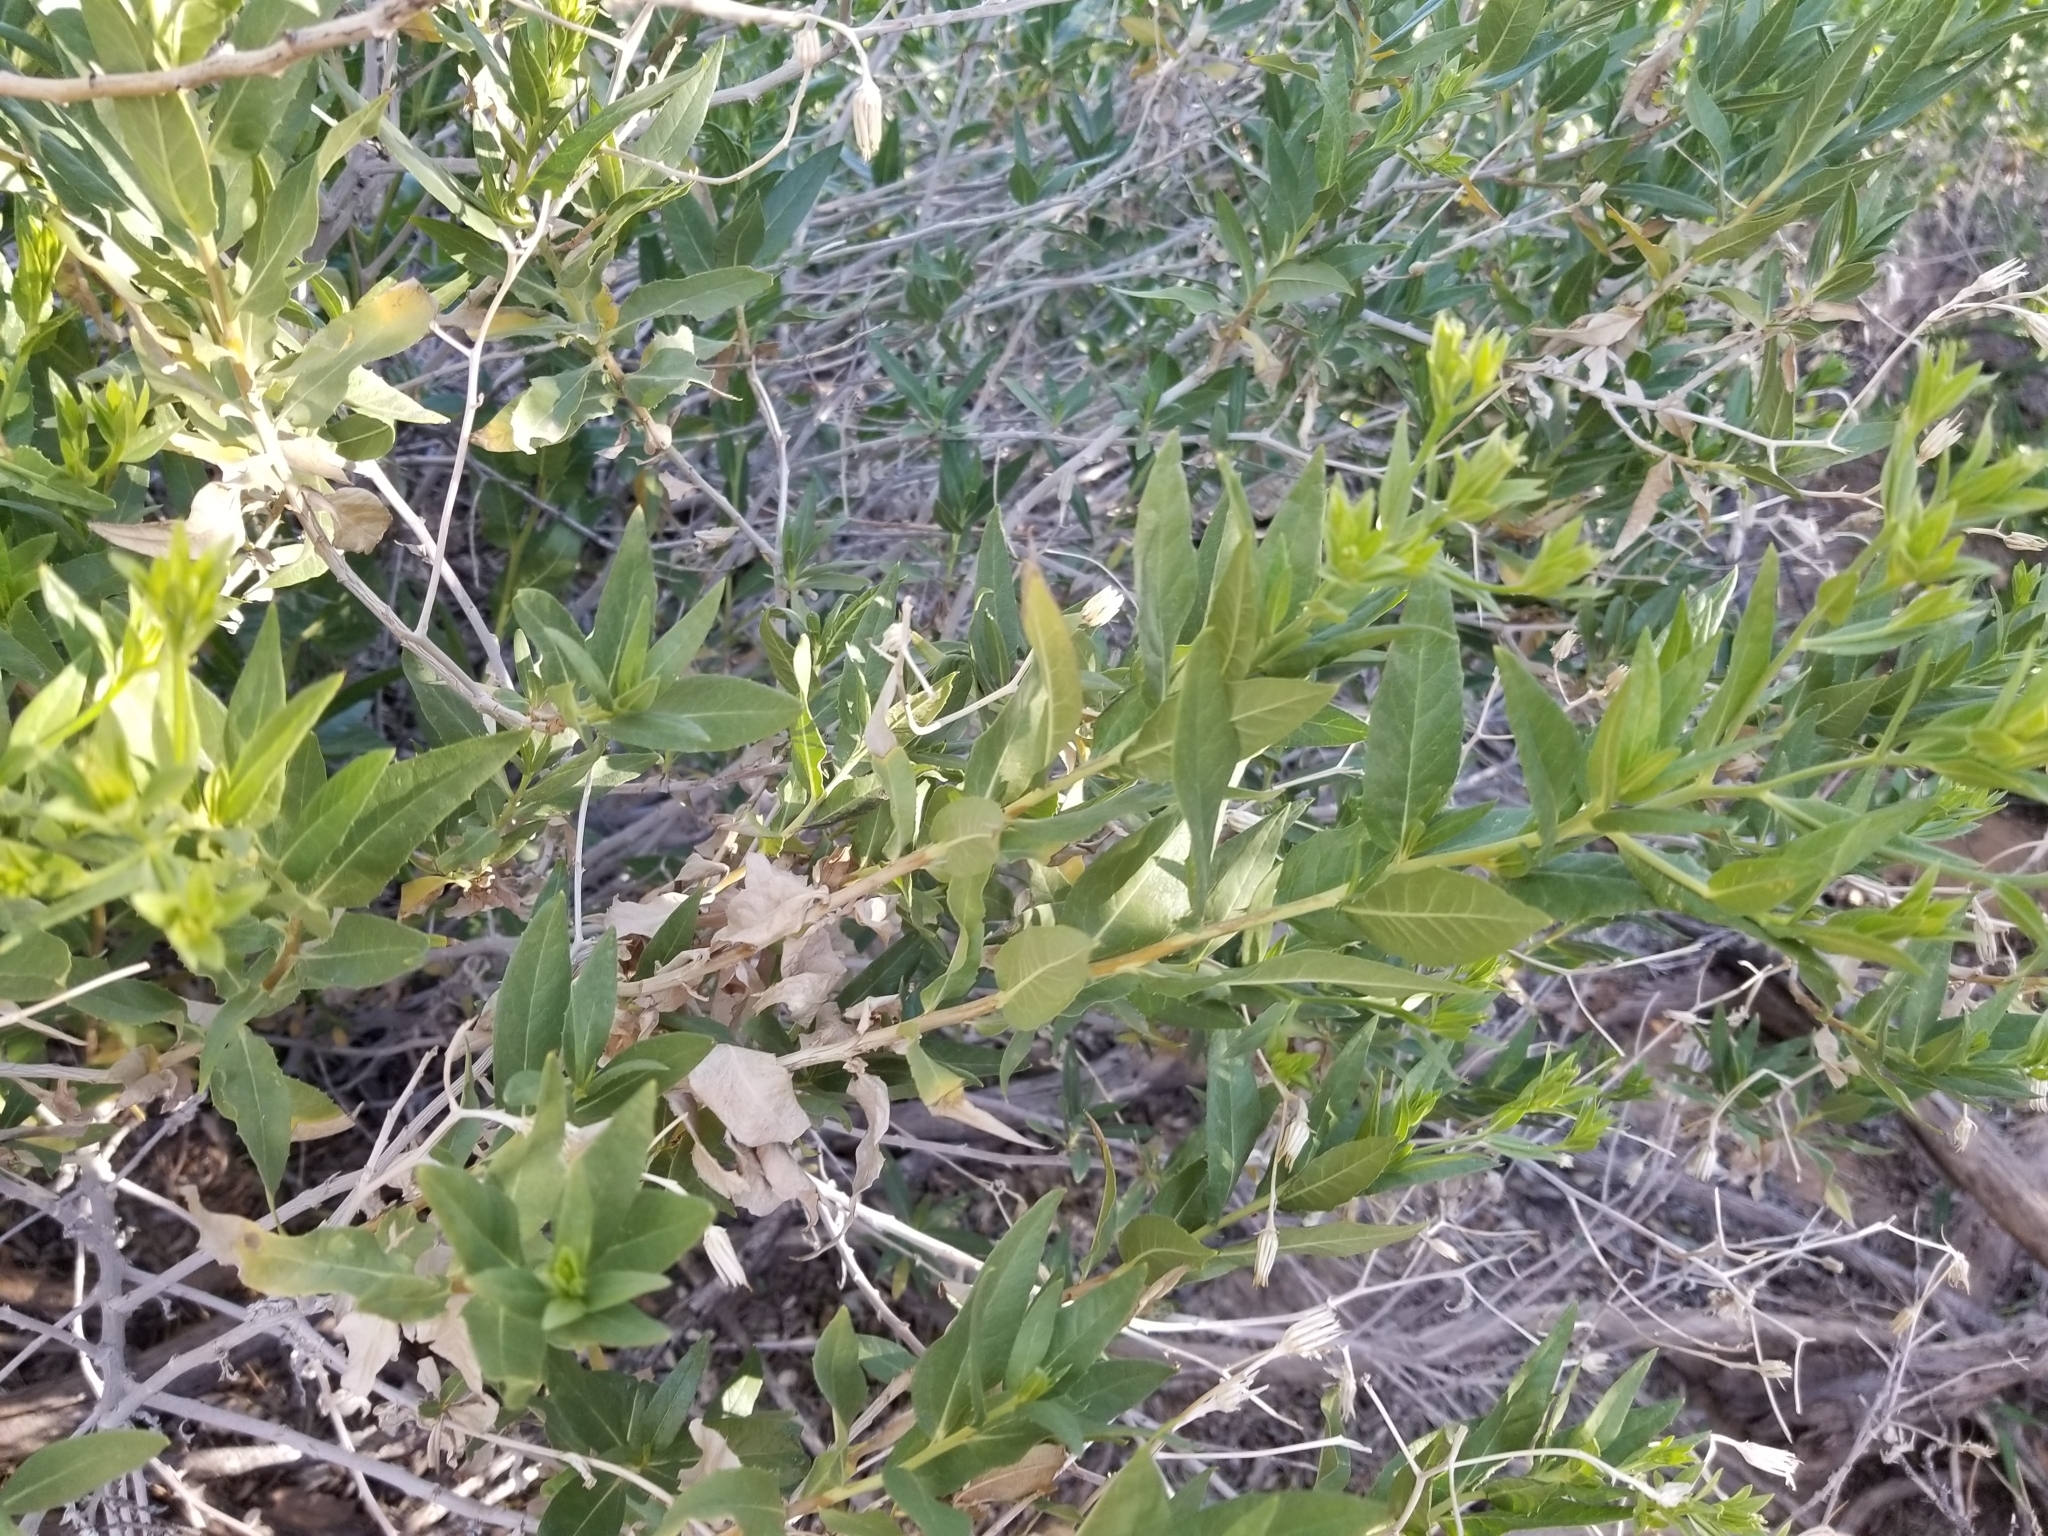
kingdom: Plantae
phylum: Tracheophyta
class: Magnoliopsida
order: Asterales
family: Asteraceae
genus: Trixis
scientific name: Trixis californica
